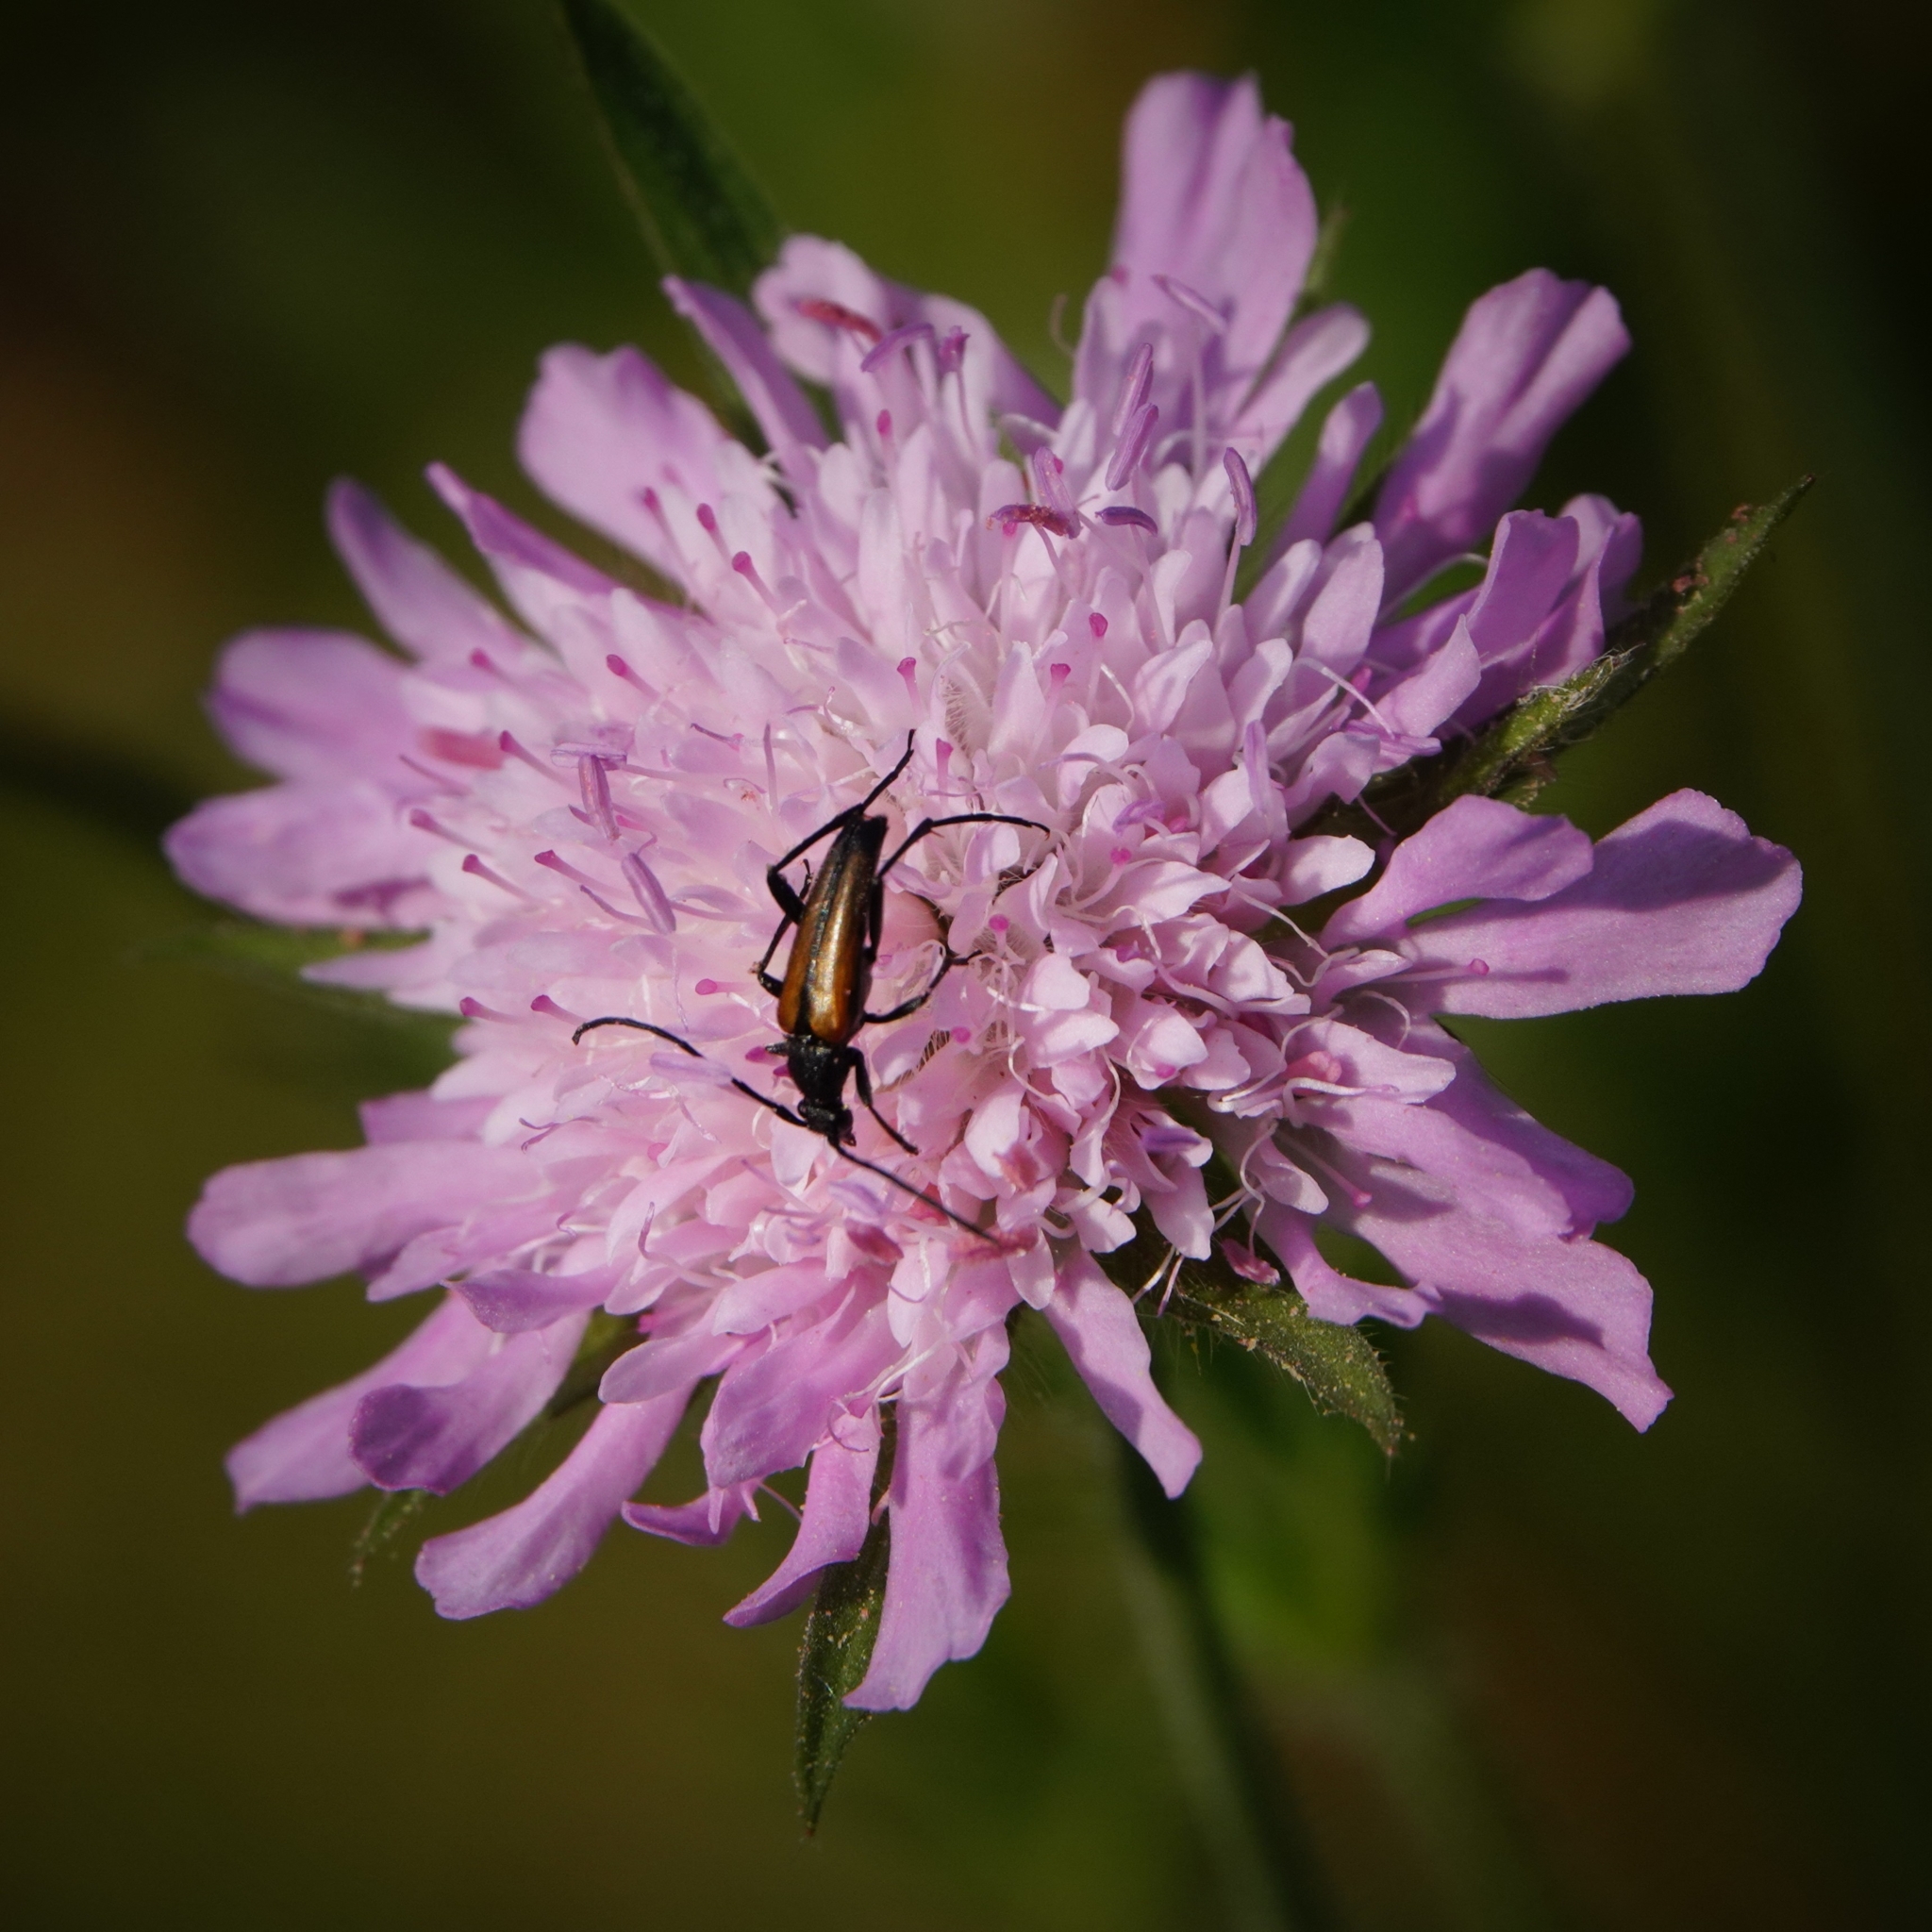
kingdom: Animalia
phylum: Arthropoda
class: Insecta
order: Coleoptera
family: Cerambycidae
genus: Stenurella
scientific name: Stenurella melanura
